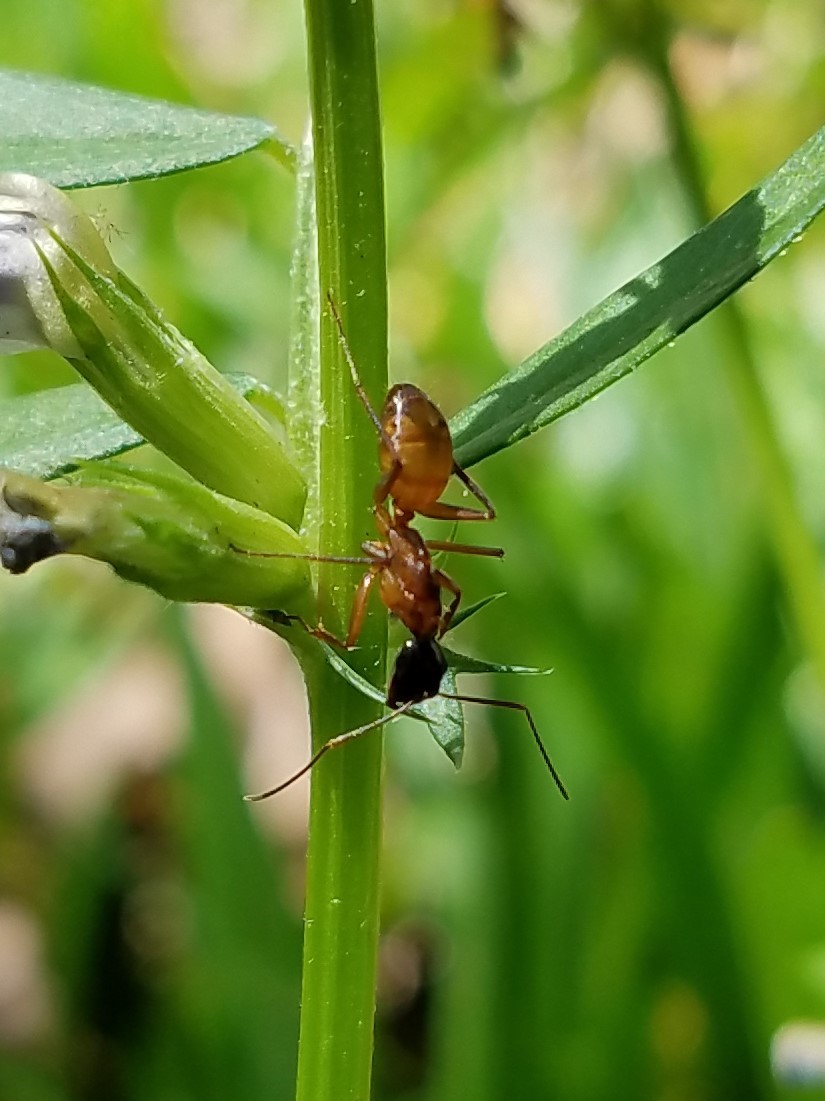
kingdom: Animalia
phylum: Arthropoda
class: Insecta
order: Hymenoptera
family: Formicidae
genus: Camponotus
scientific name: Camponotus americanus
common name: American carpenter ant
